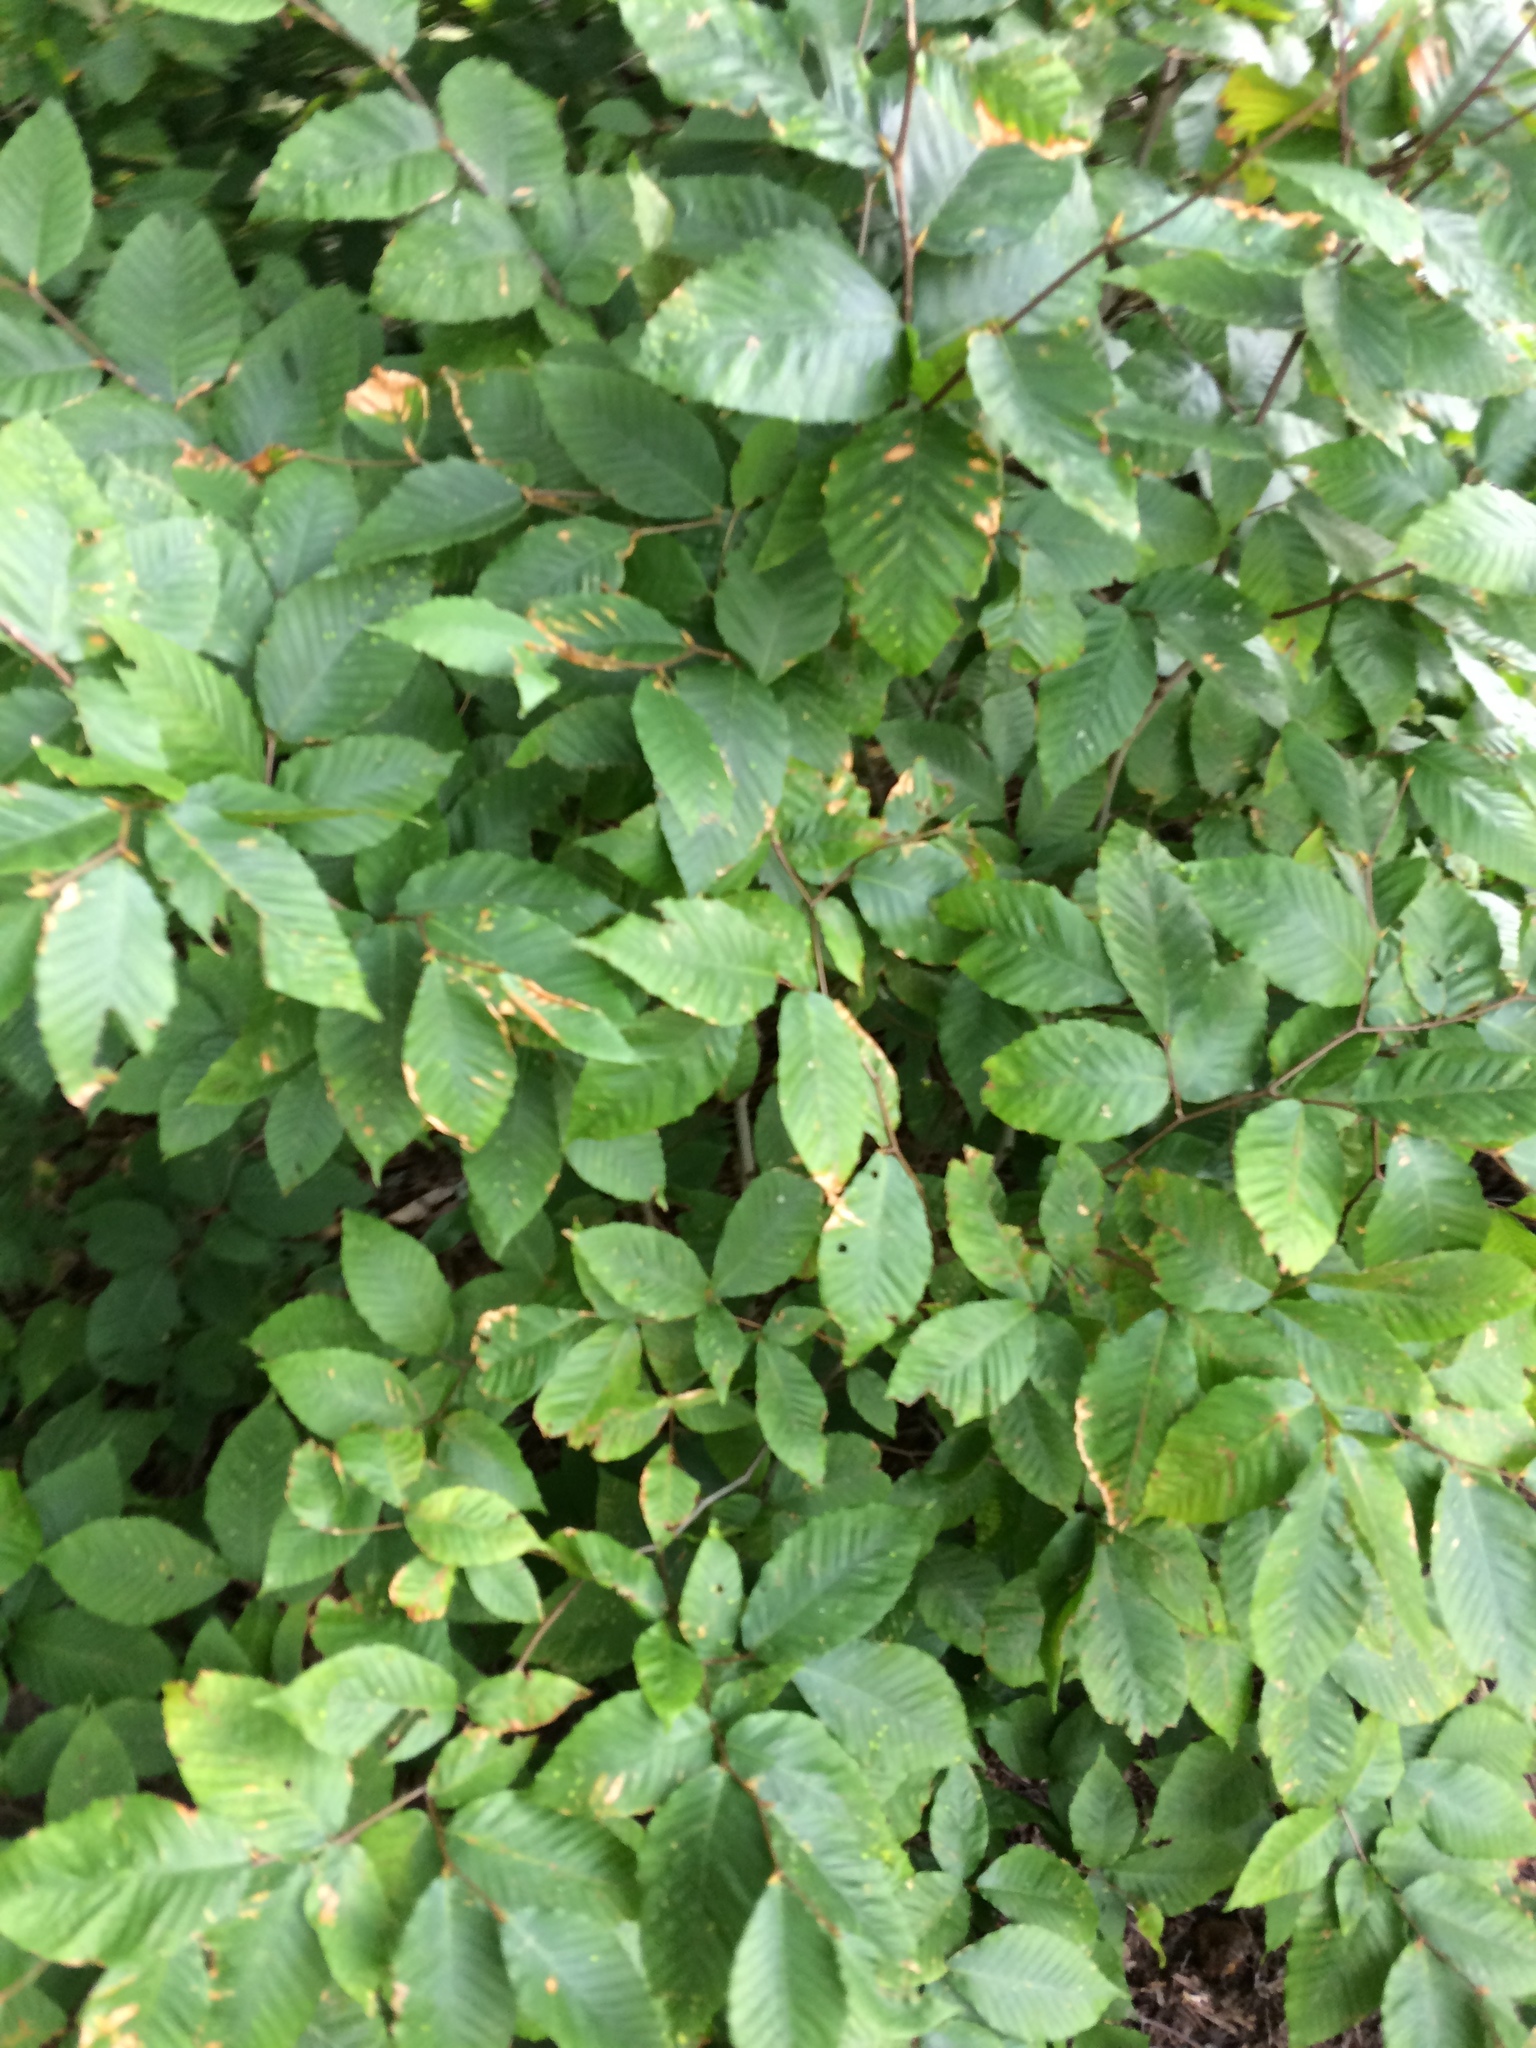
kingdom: Plantae
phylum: Tracheophyta
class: Magnoliopsida
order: Fagales
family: Fagaceae
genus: Fagus
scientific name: Fagus grandifolia
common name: American beech
